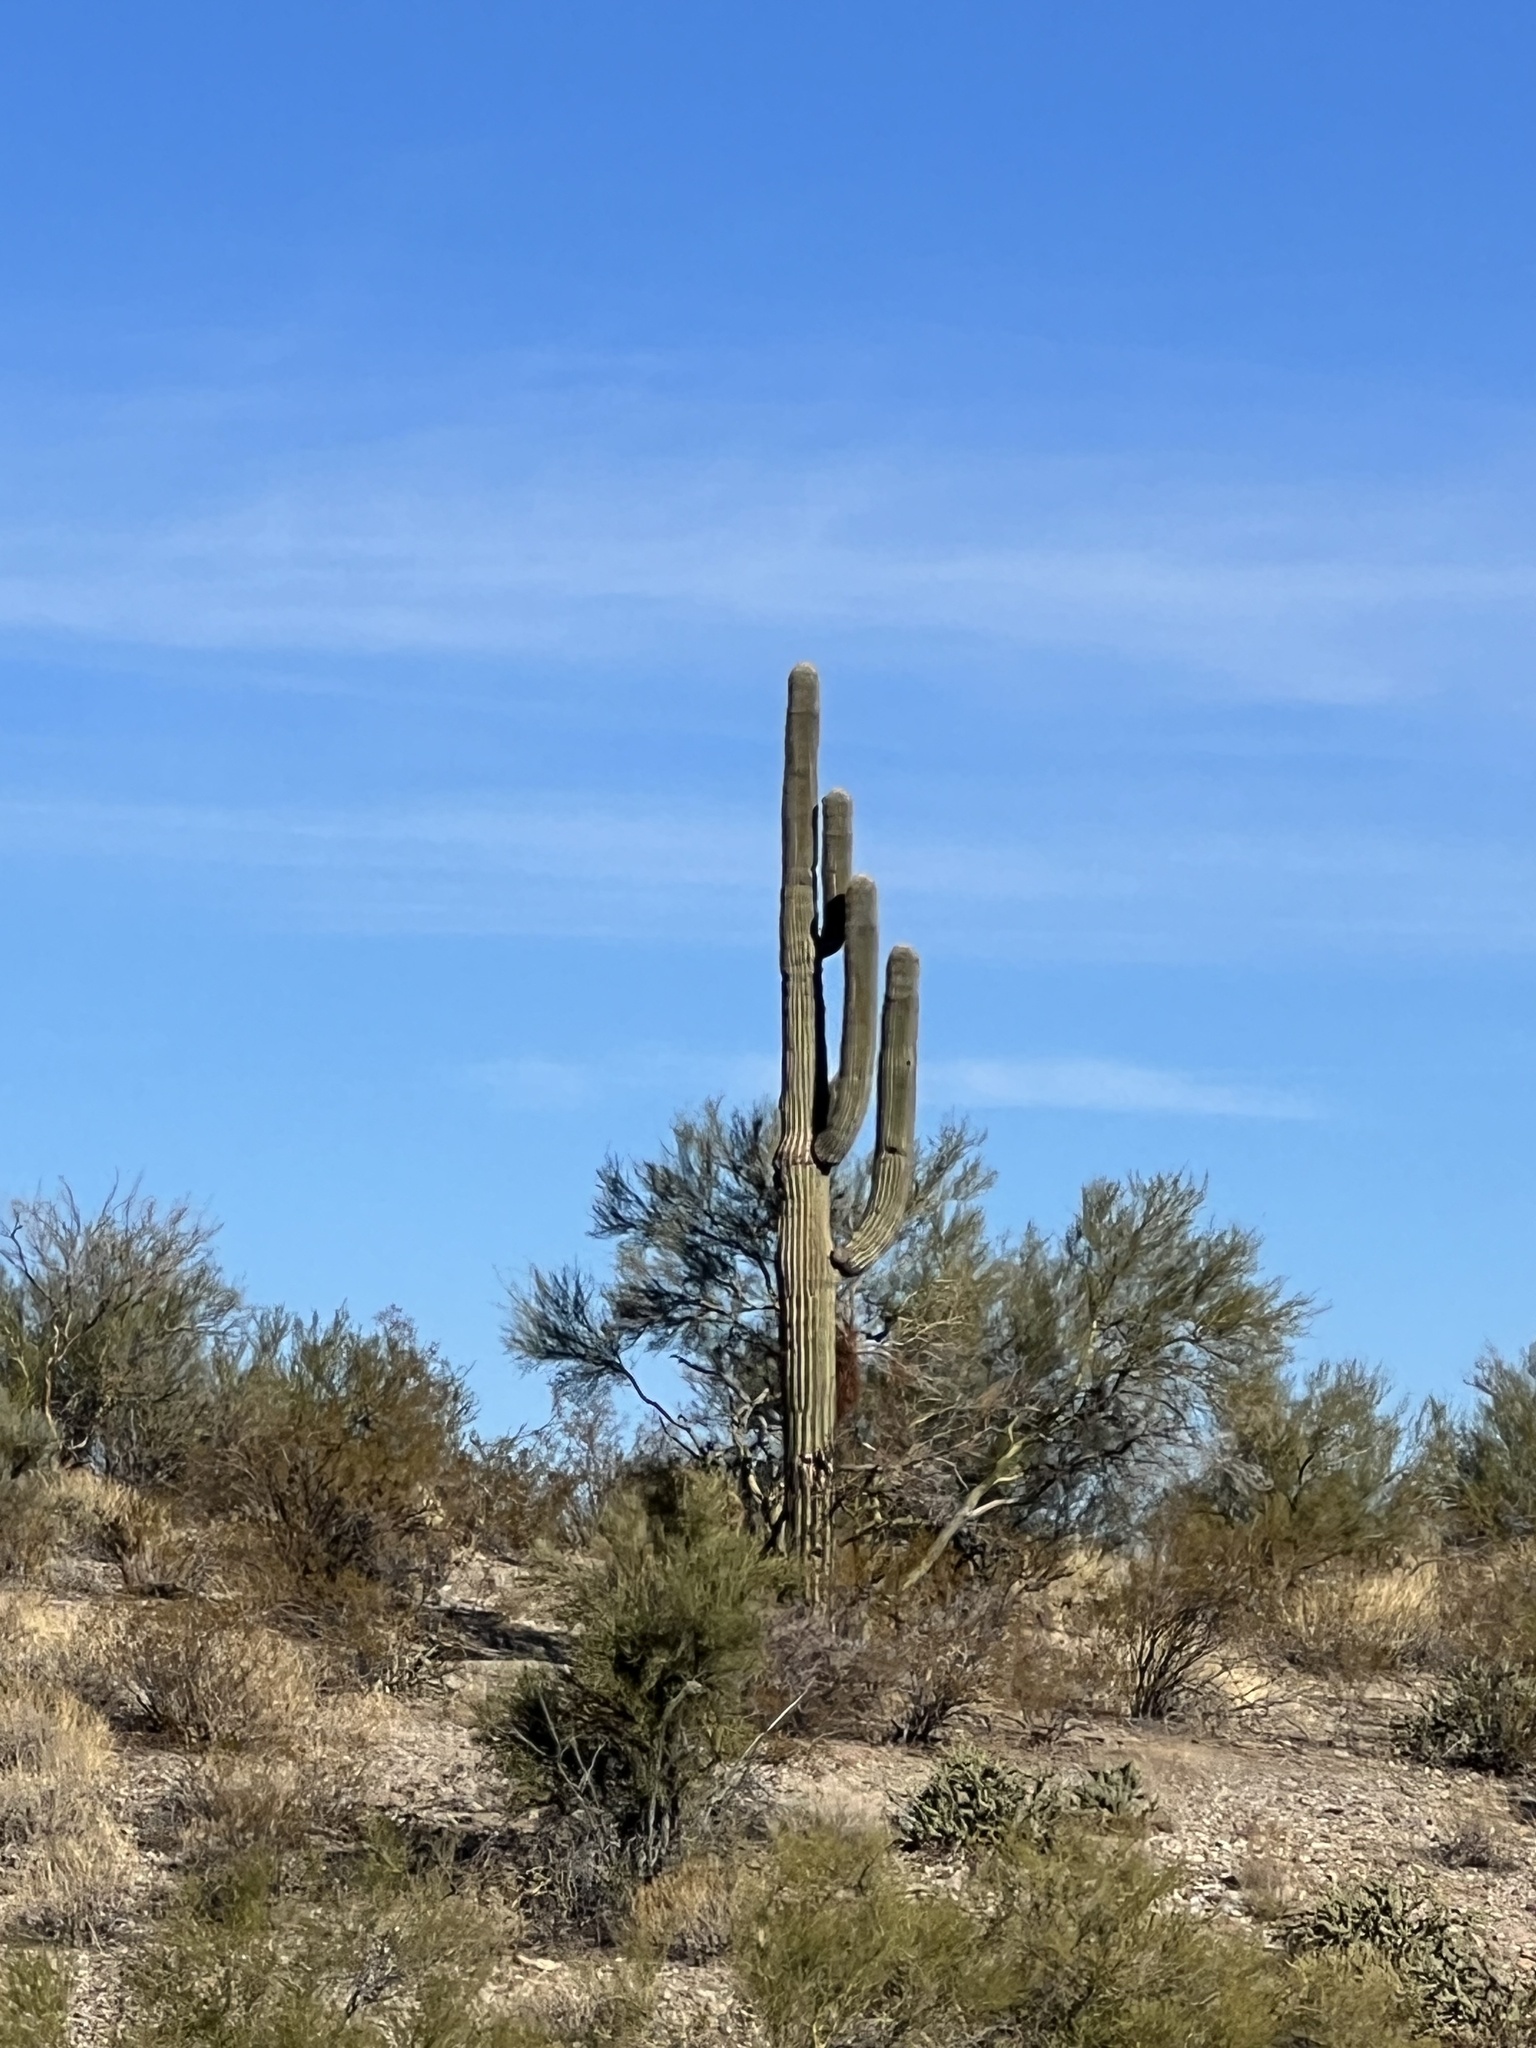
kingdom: Plantae
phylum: Tracheophyta
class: Magnoliopsida
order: Caryophyllales
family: Cactaceae
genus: Carnegiea
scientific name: Carnegiea gigantea
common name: Saguaro
